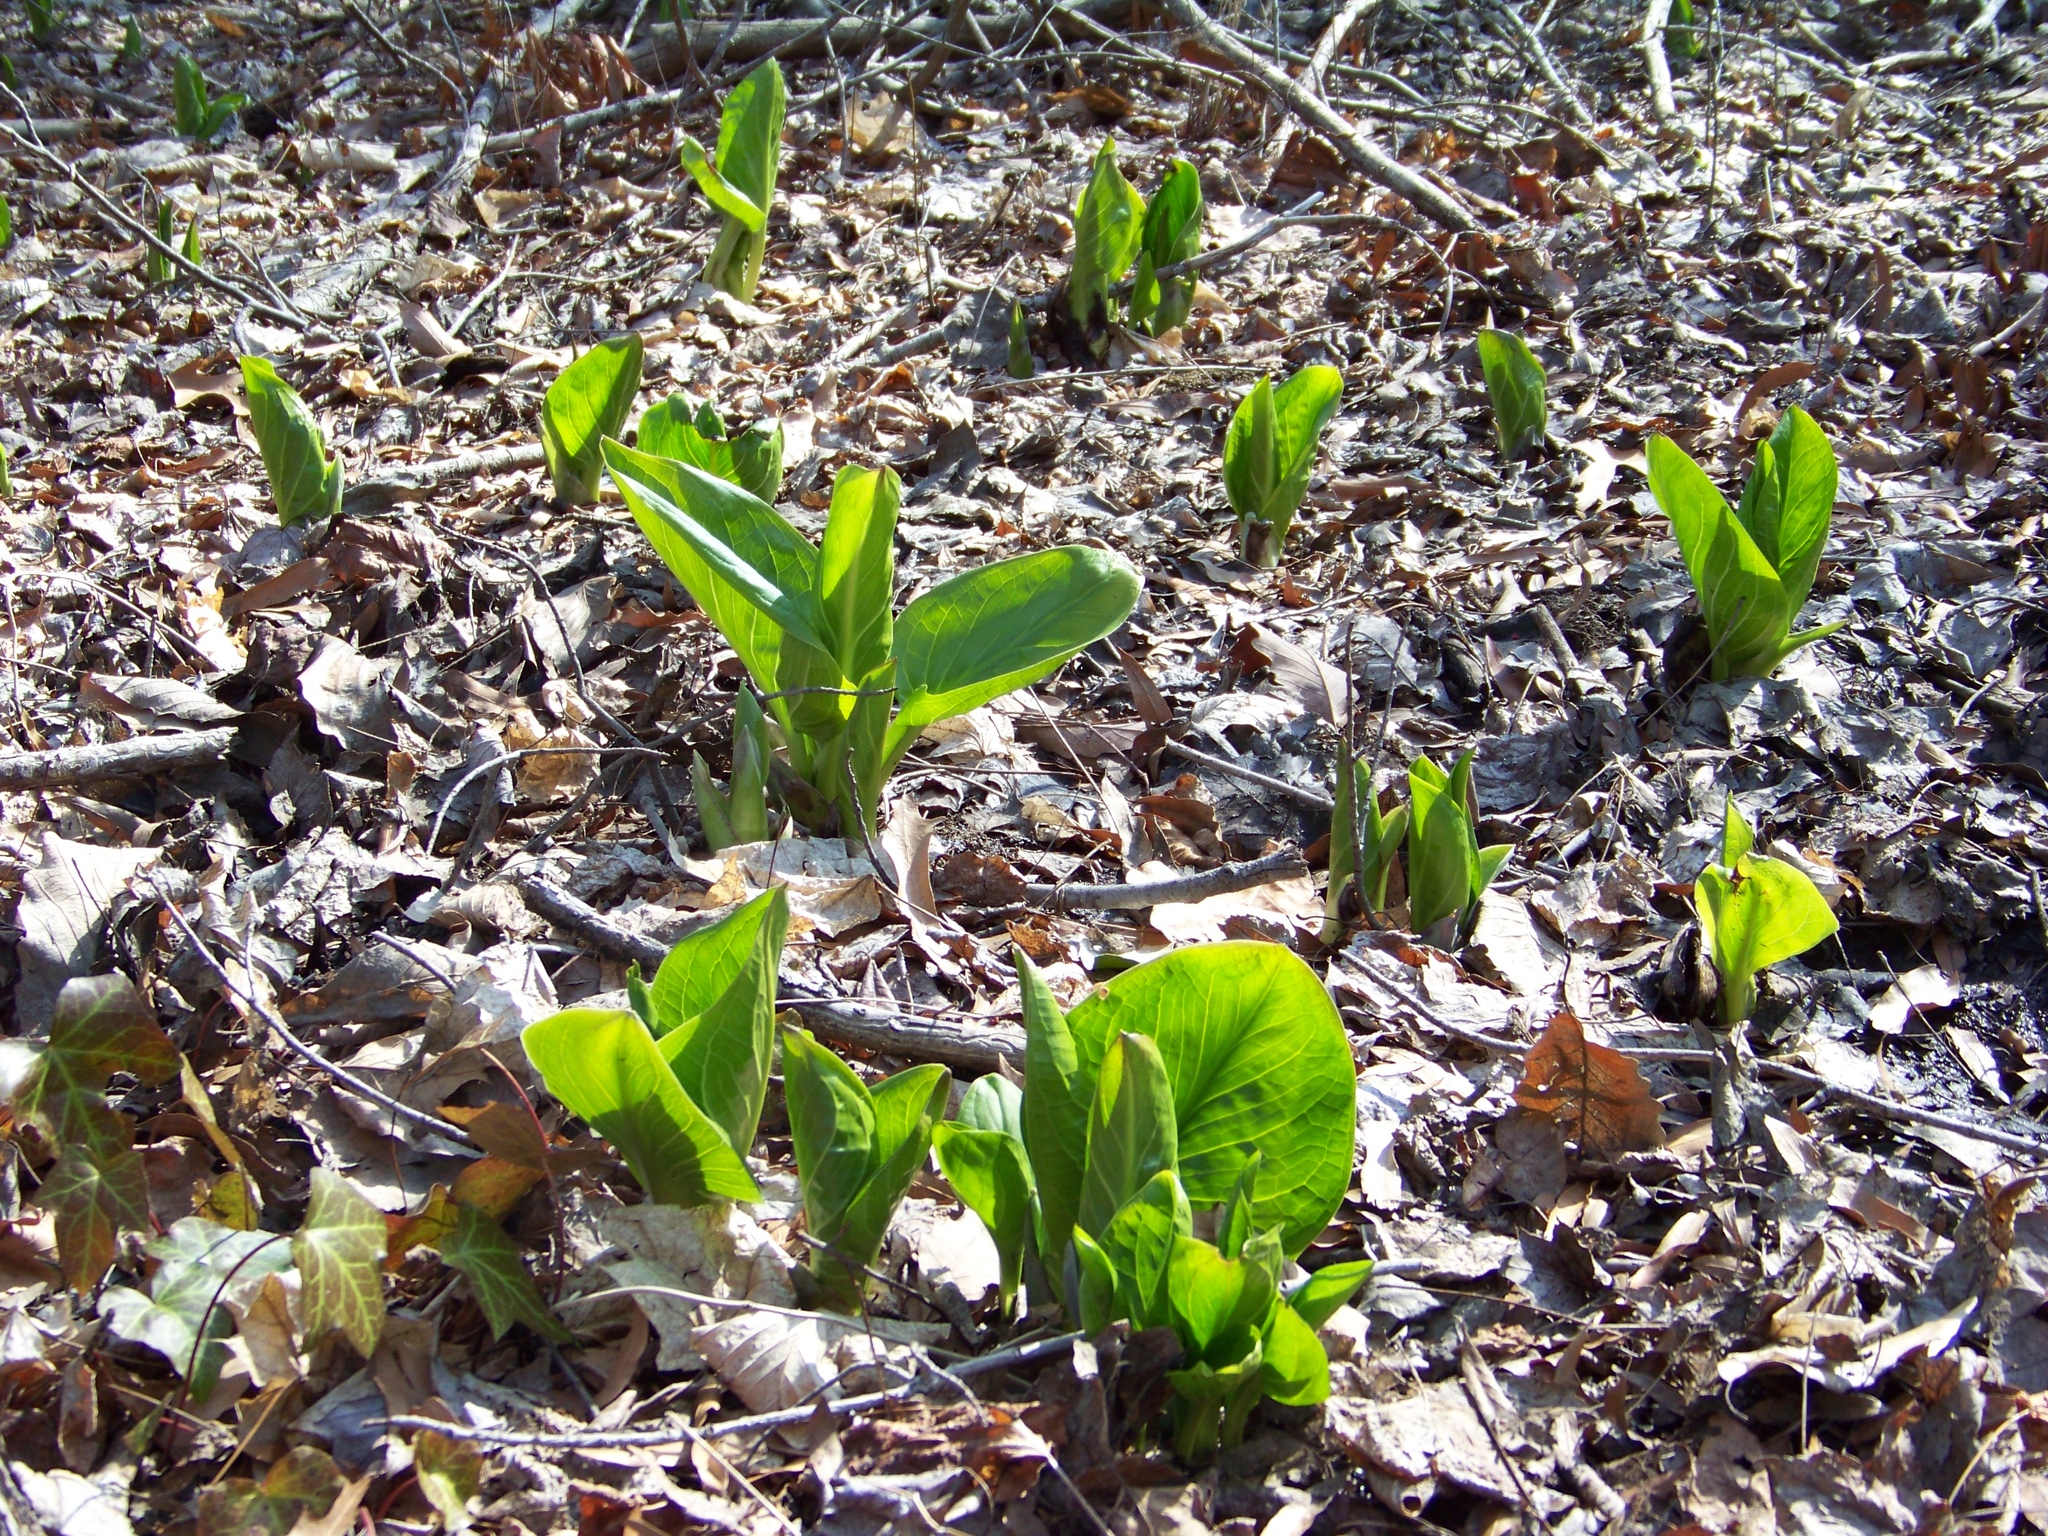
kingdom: Plantae
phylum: Tracheophyta
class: Liliopsida
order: Alismatales
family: Araceae
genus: Symplocarpus
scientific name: Symplocarpus foetidus
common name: Eastern skunk cabbage
